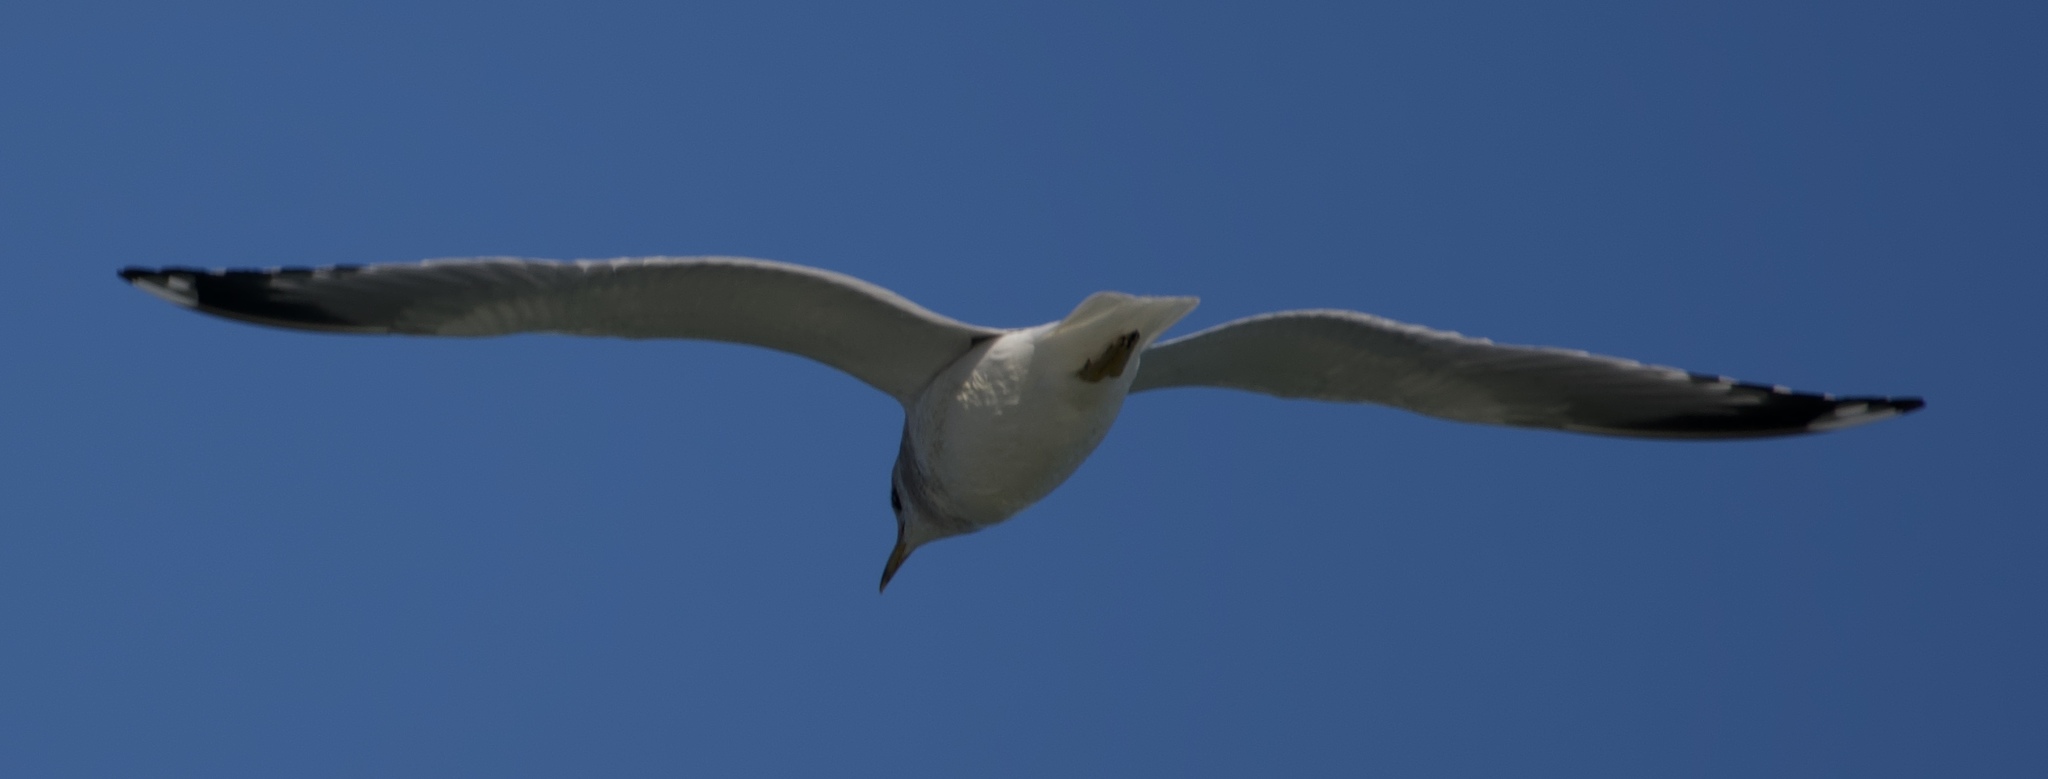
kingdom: Animalia
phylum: Chordata
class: Aves
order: Charadriiformes
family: Laridae
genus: Larus
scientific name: Larus brachyrhynchus
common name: Short-billed gull
